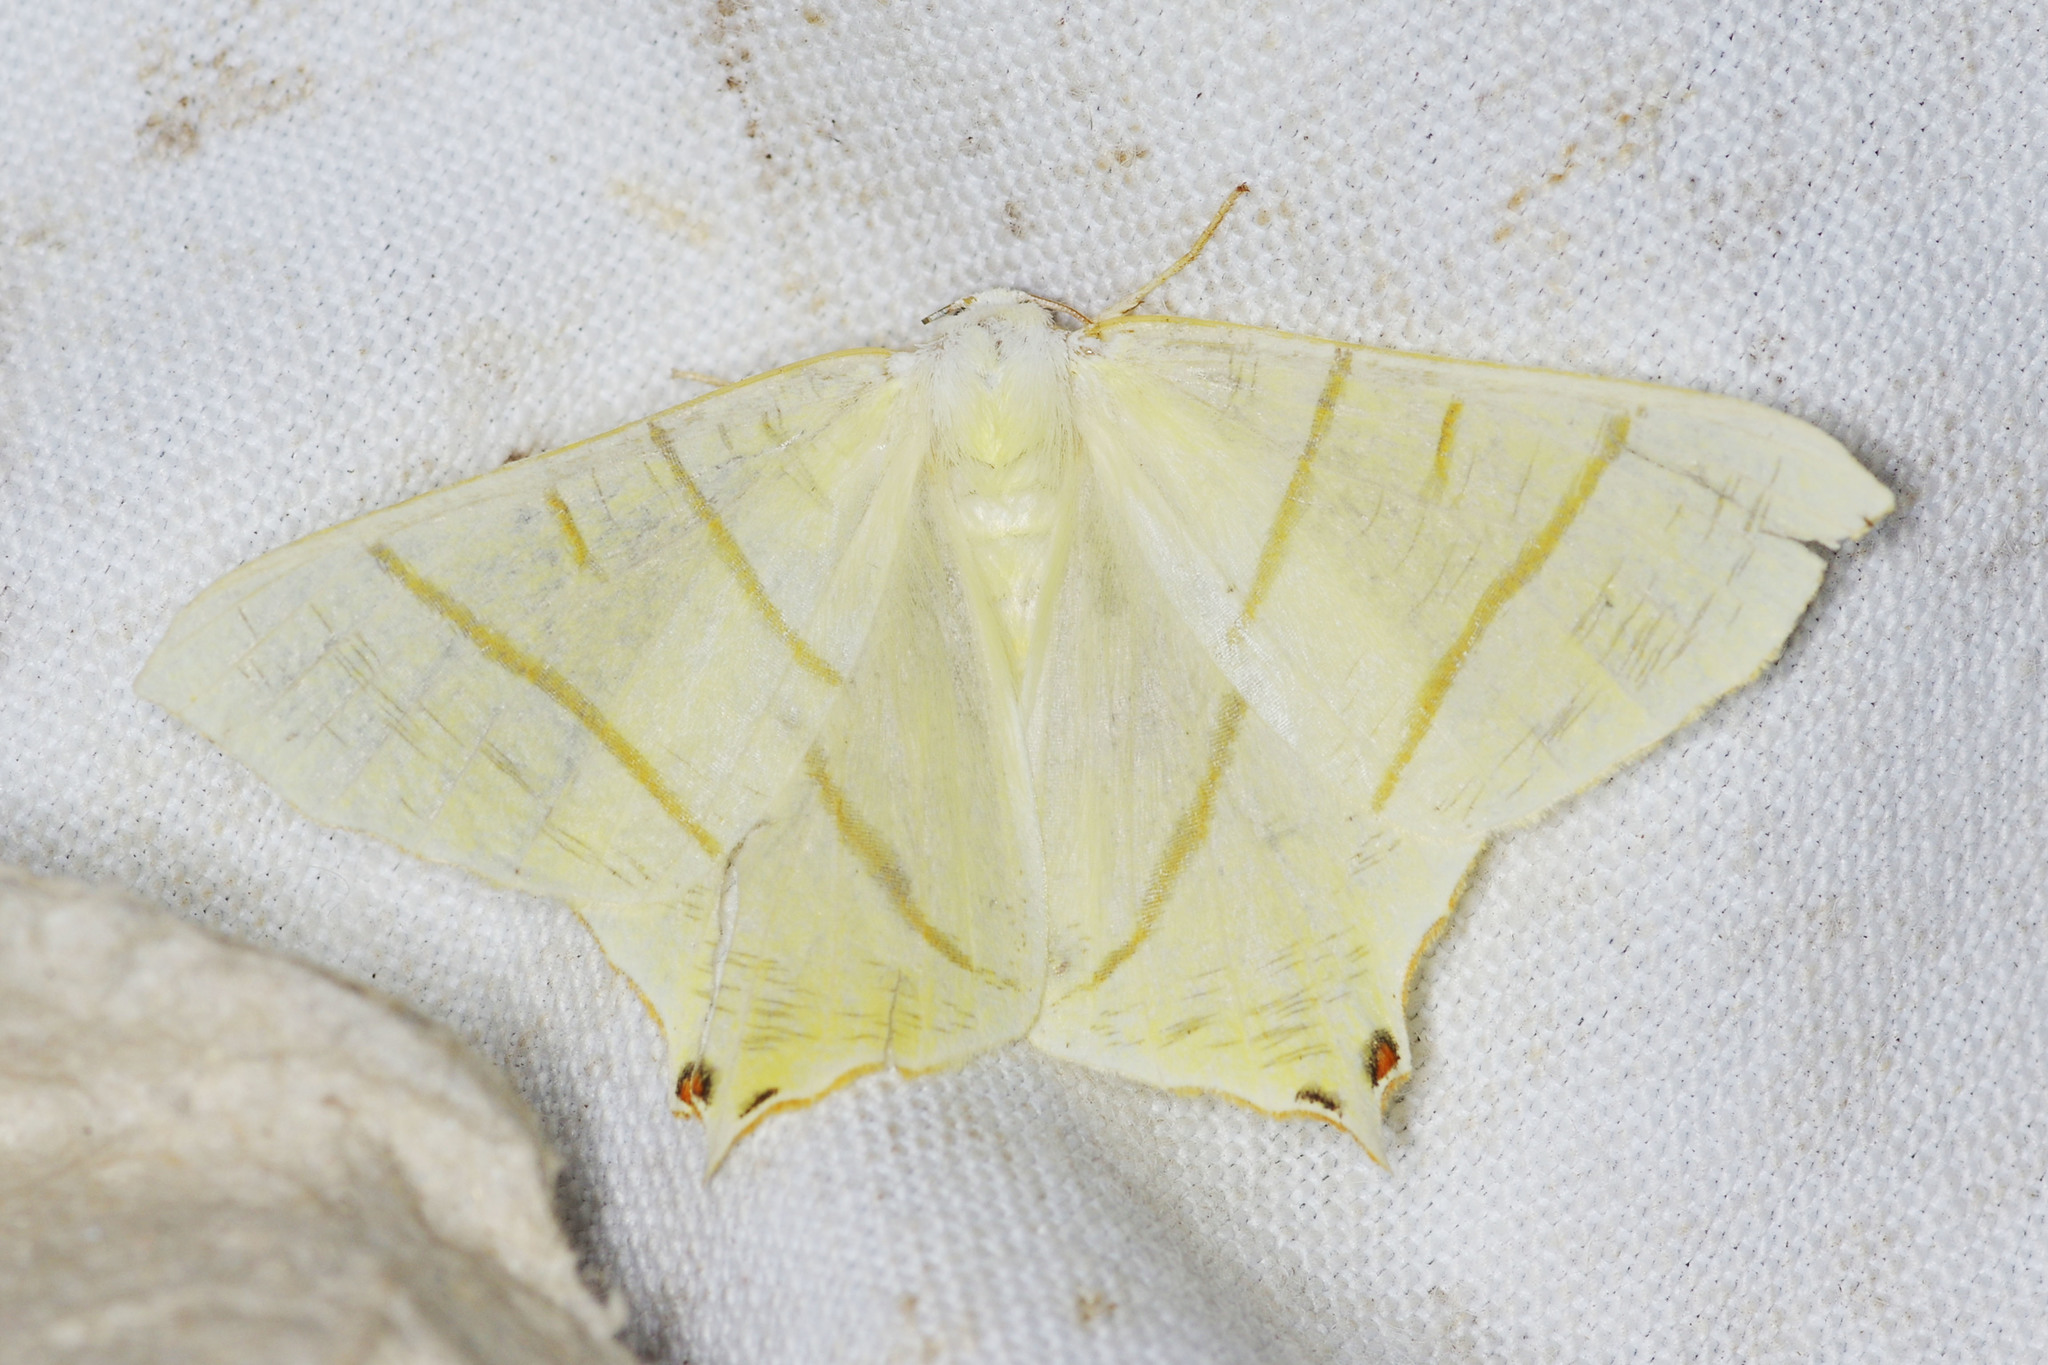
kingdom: Animalia
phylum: Arthropoda
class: Insecta
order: Lepidoptera
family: Geometridae
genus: Ourapteryx
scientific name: Ourapteryx sambucaria
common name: Swallow-tailed moth
